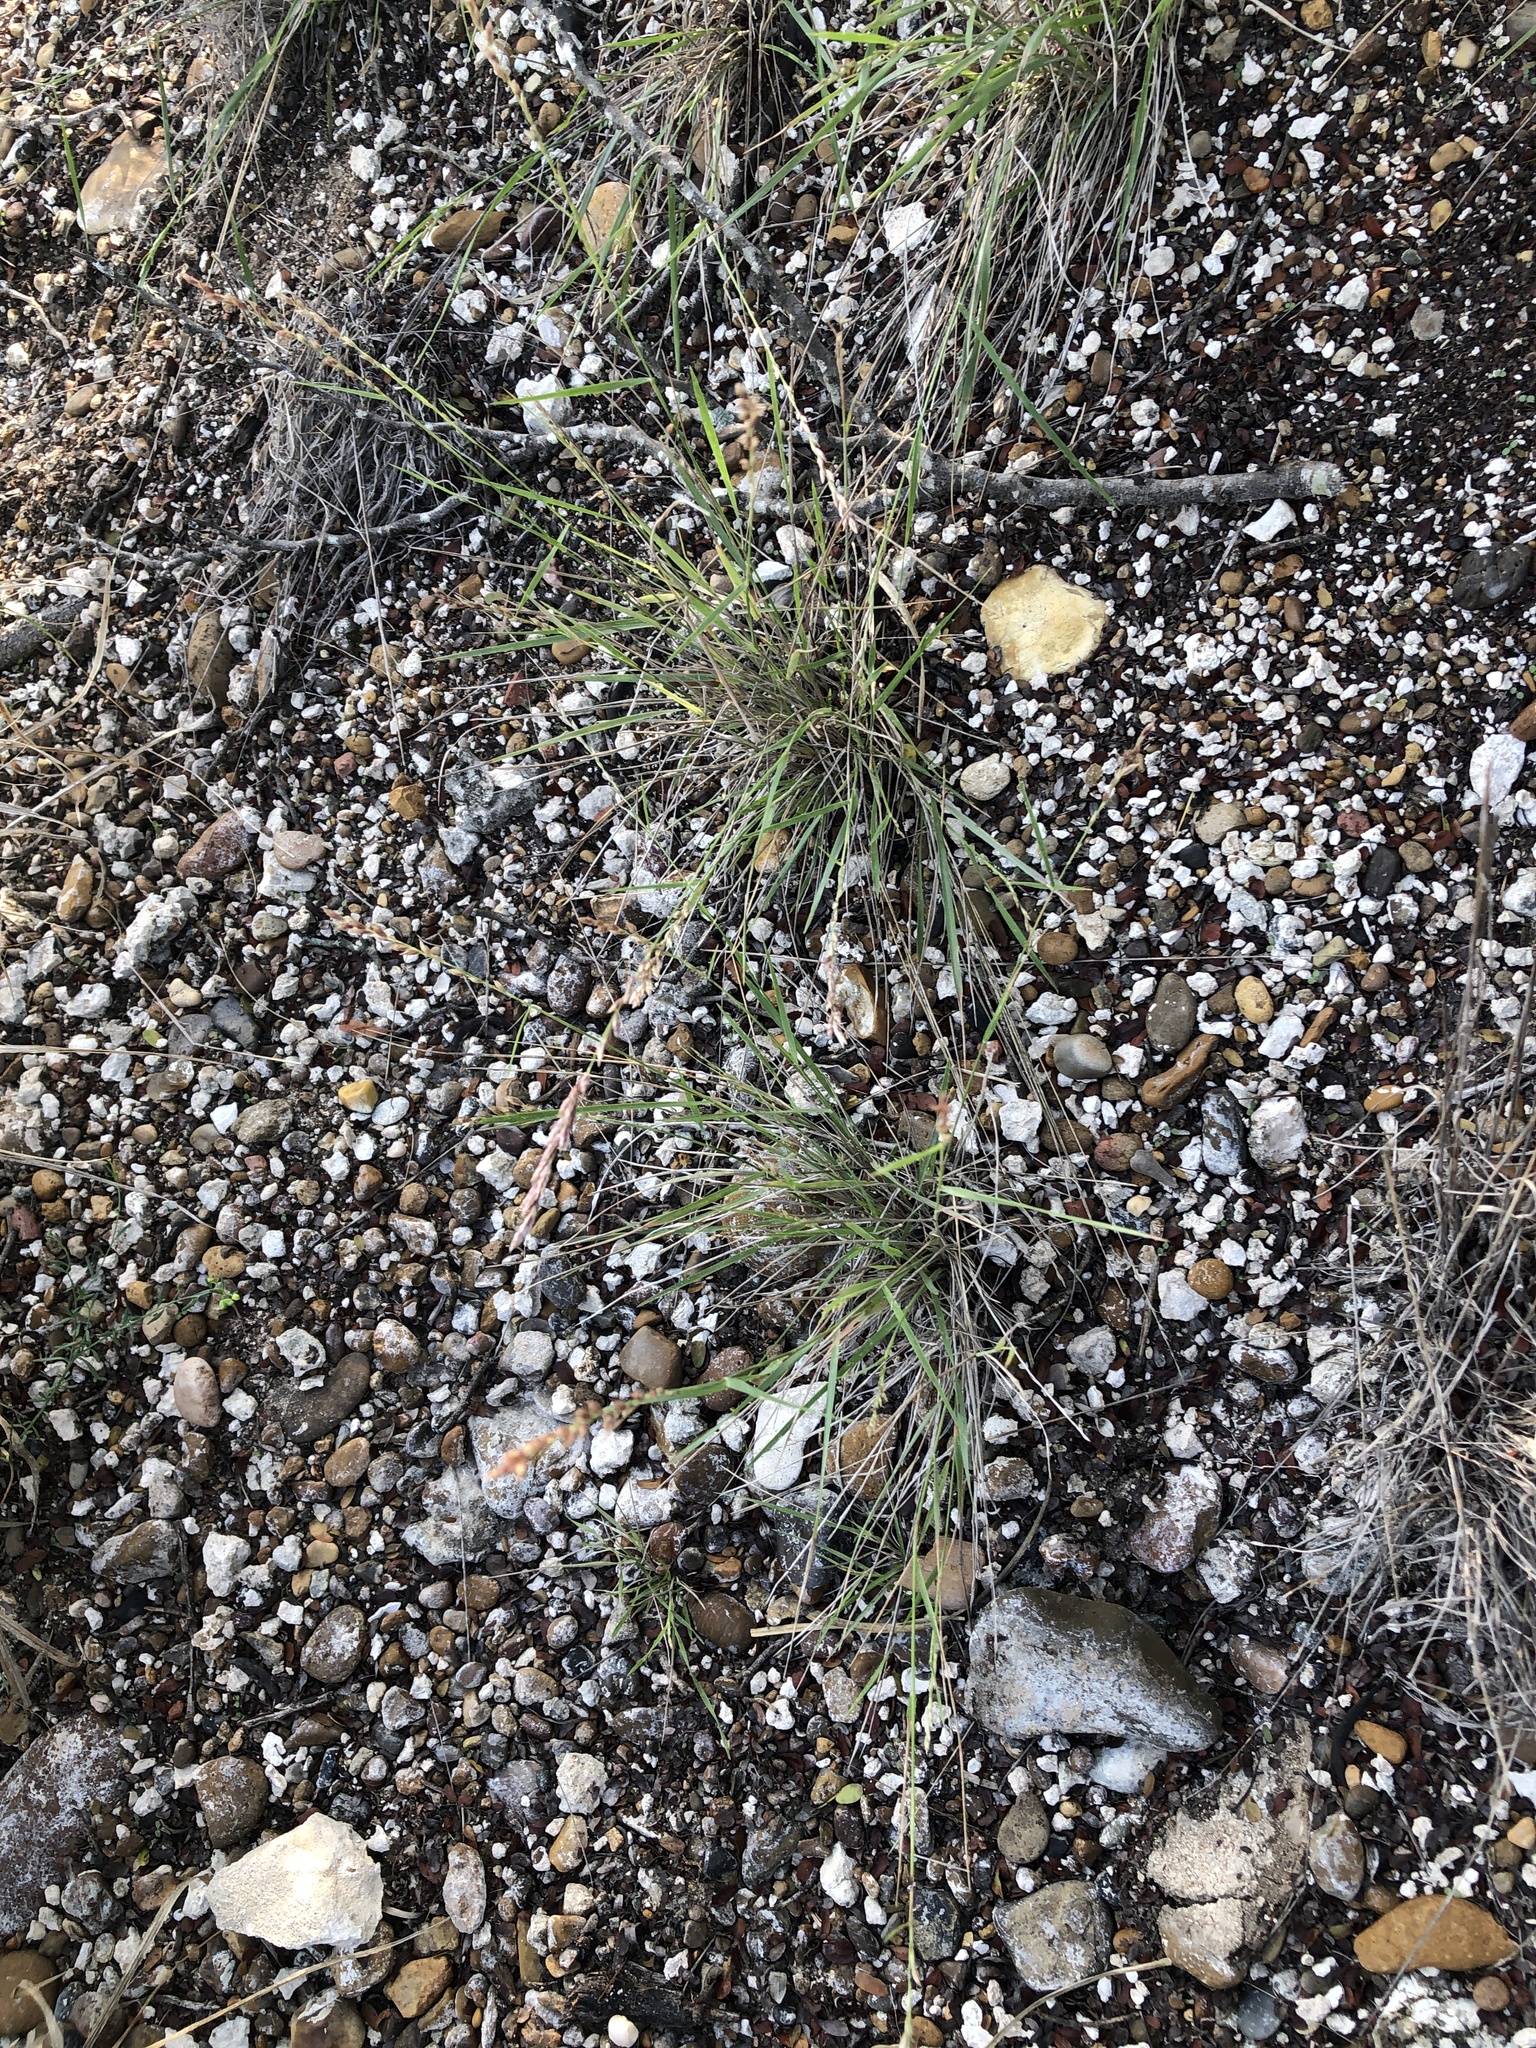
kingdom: Plantae
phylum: Tracheophyta
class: Liliopsida
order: Poales
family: Poaceae
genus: Tridentopsis
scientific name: Tridentopsis mutica
